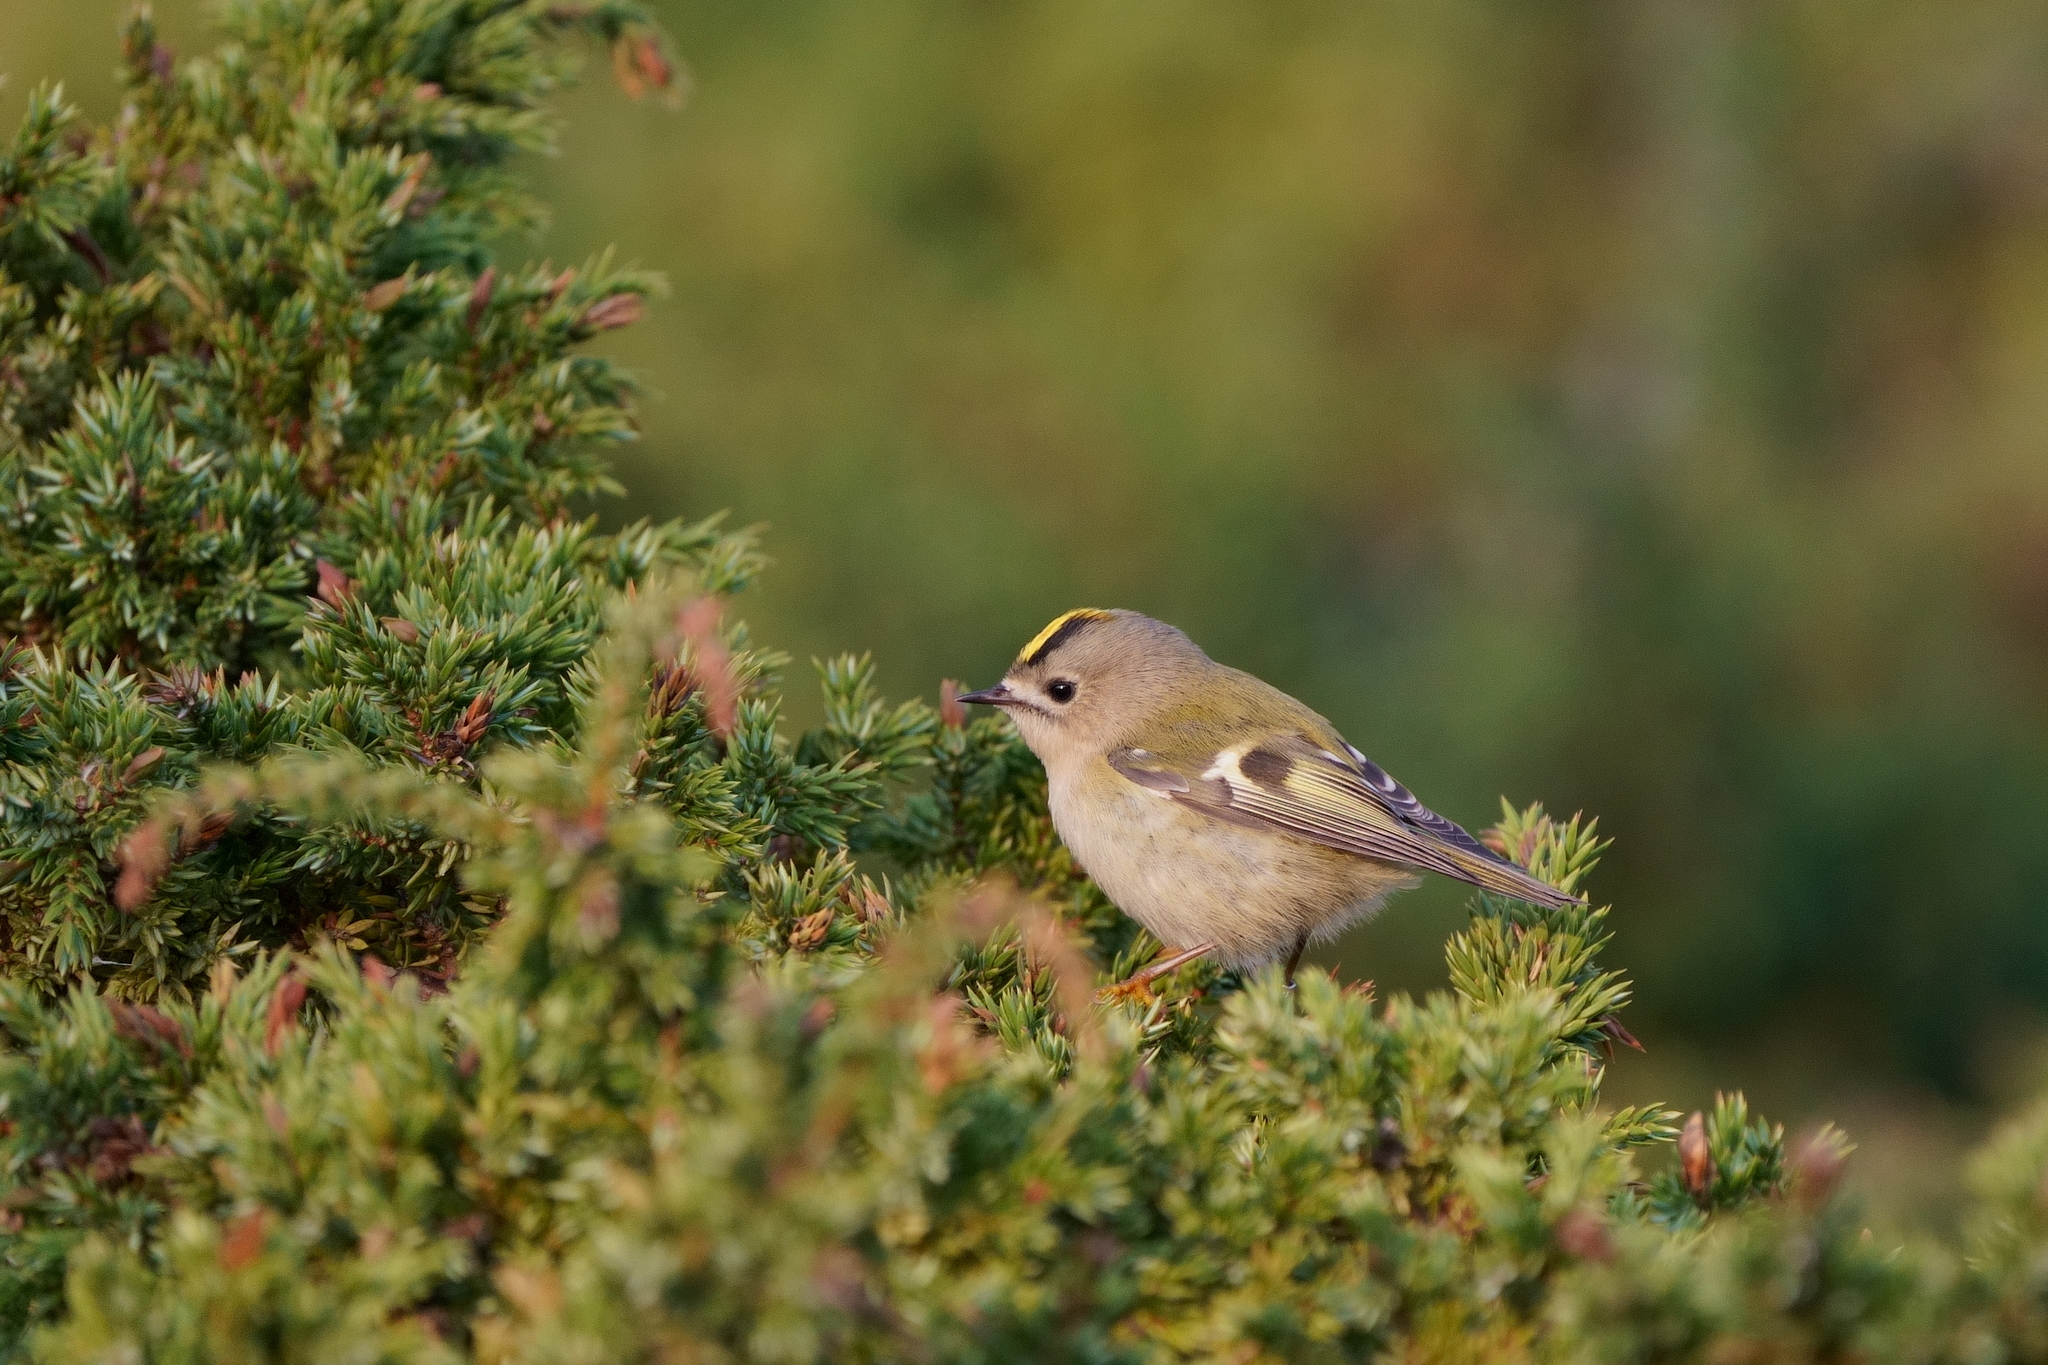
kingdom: Animalia
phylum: Chordata
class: Aves
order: Passeriformes
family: Regulidae
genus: Regulus
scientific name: Regulus regulus
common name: Goldcrest
